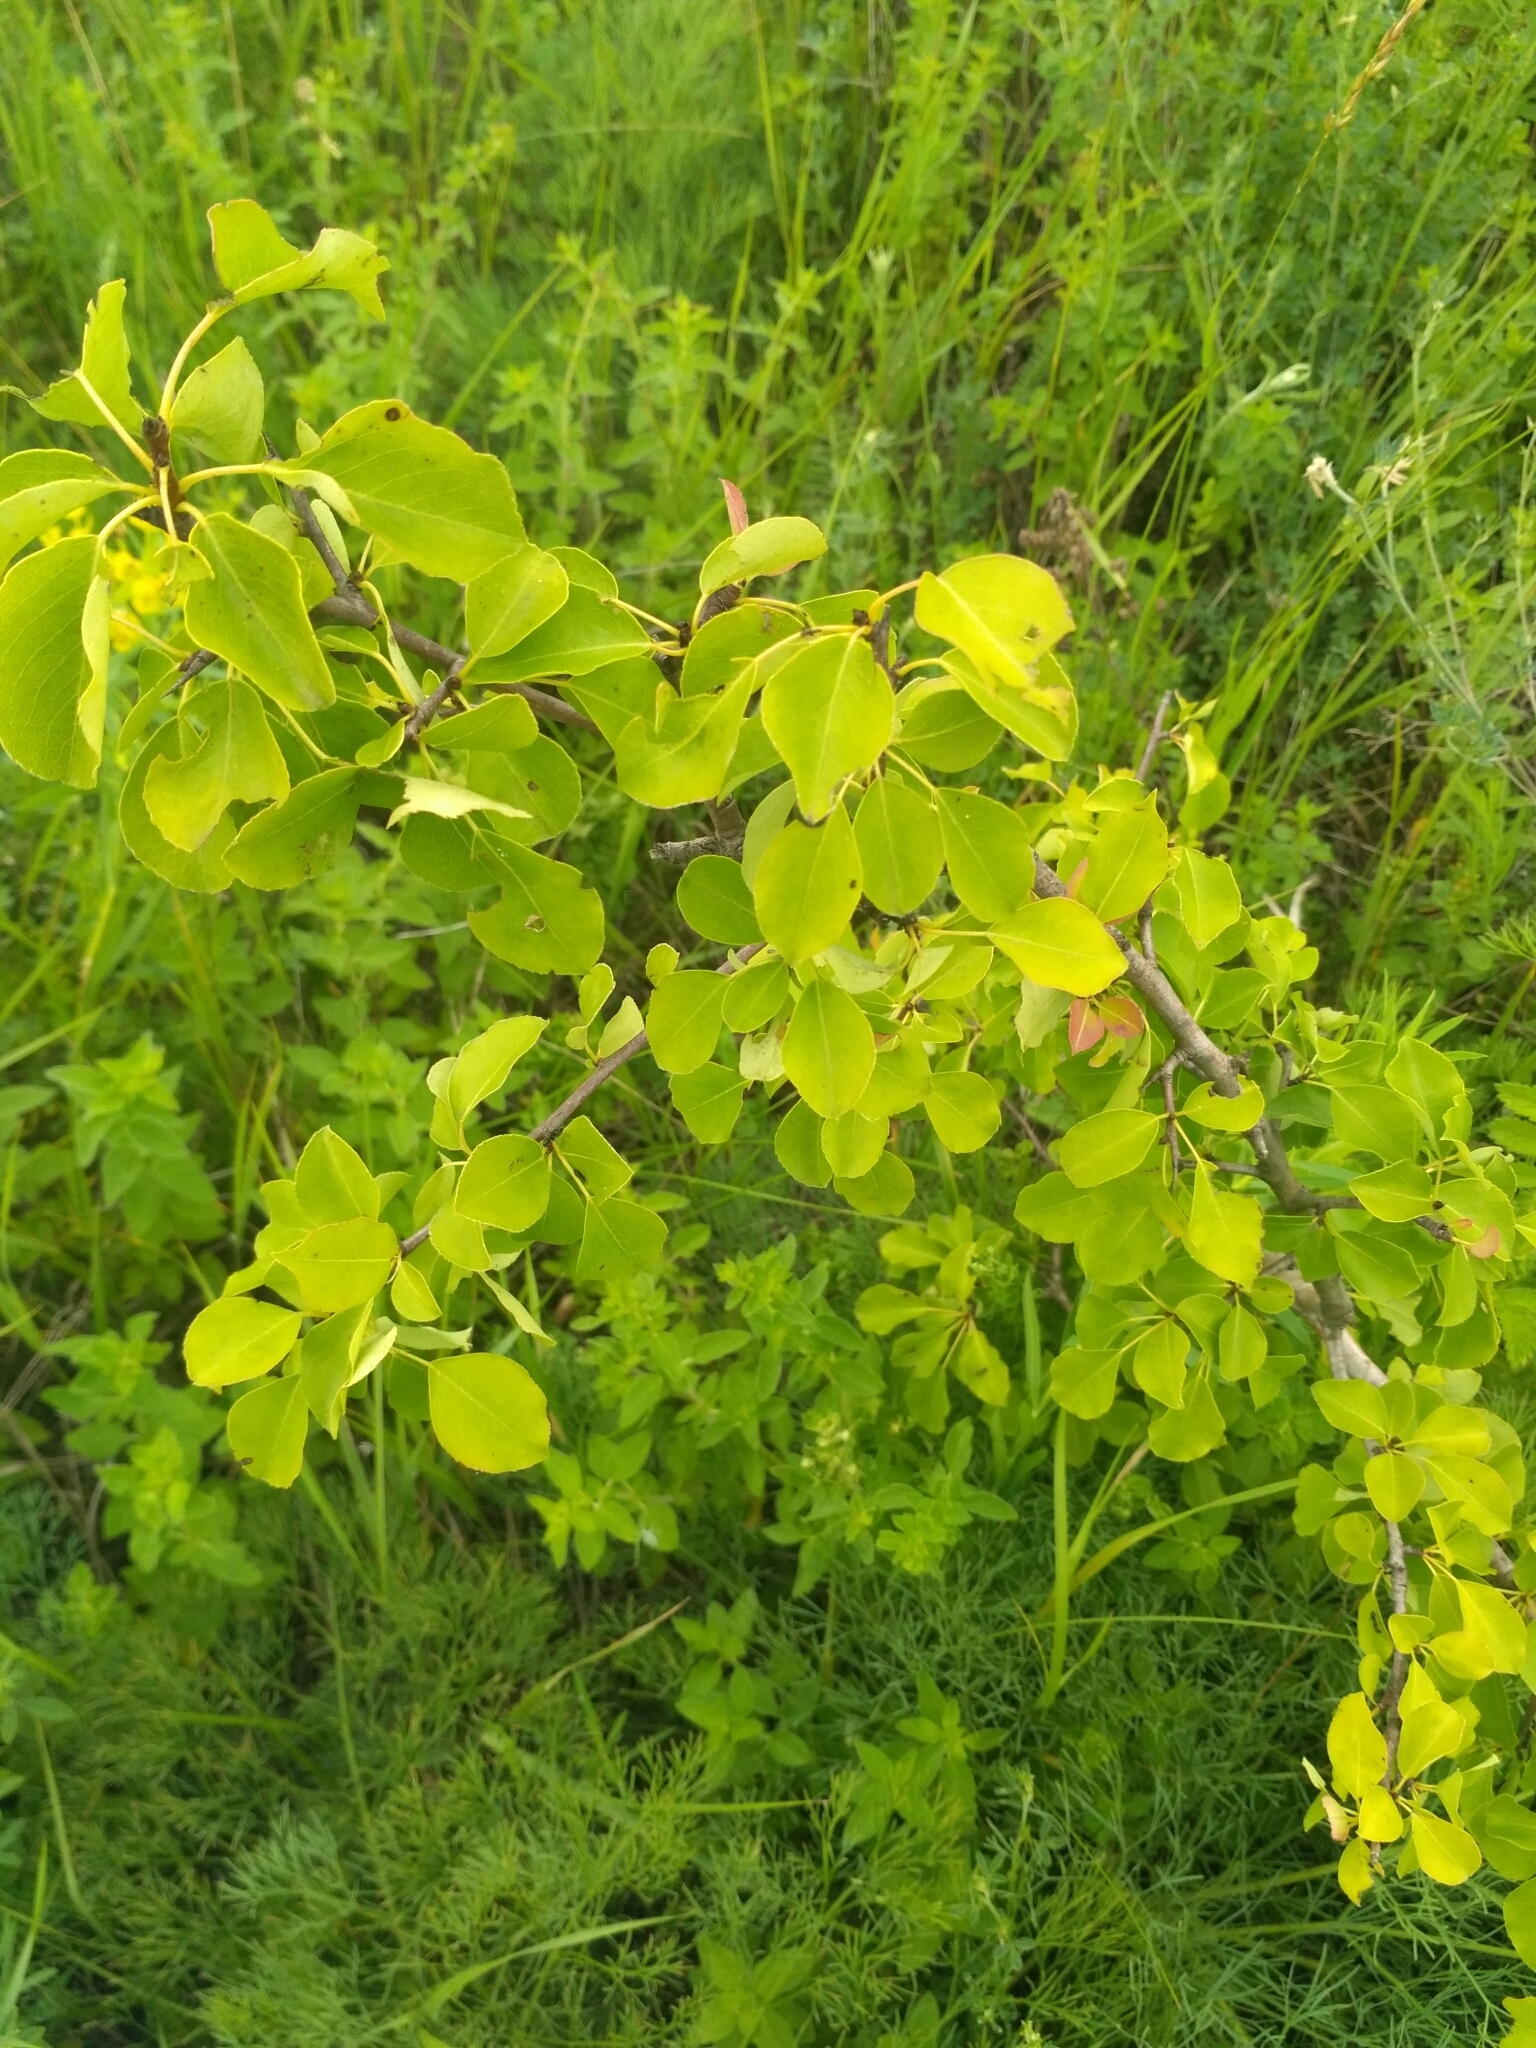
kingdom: Plantae
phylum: Tracheophyta
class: Magnoliopsida
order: Rosales
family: Rosaceae
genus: Pyrus
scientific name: Pyrus communis
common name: Pear
